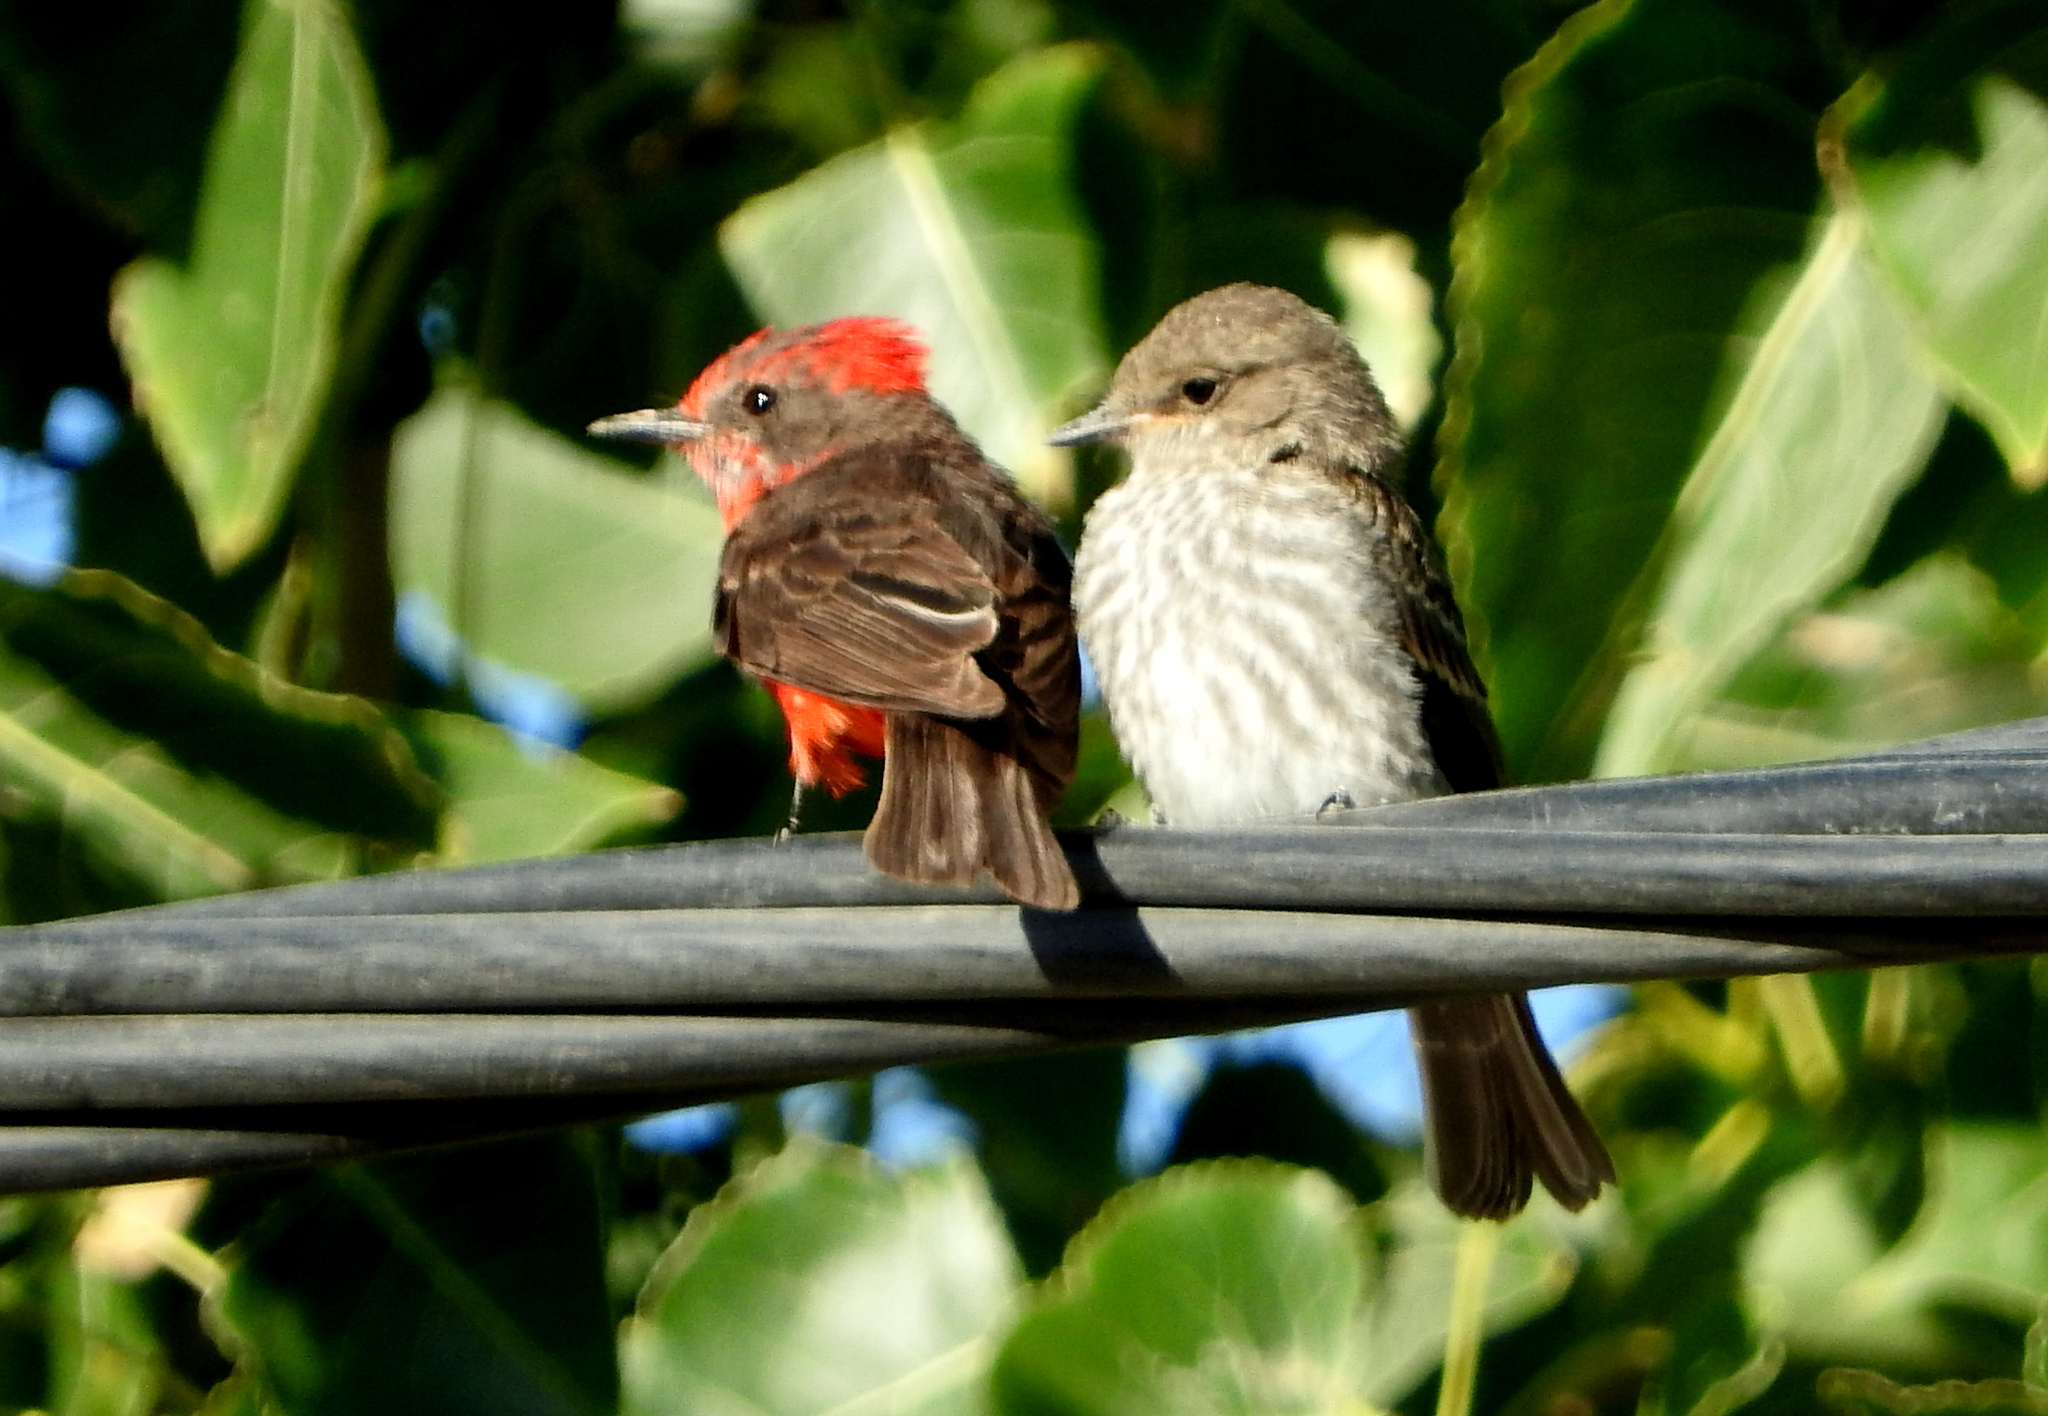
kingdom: Animalia
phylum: Chordata
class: Aves
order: Passeriformes
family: Tyrannidae
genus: Pyrocephalus
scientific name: Pyrocephalus rubinus
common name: Vermilion flycatcher
